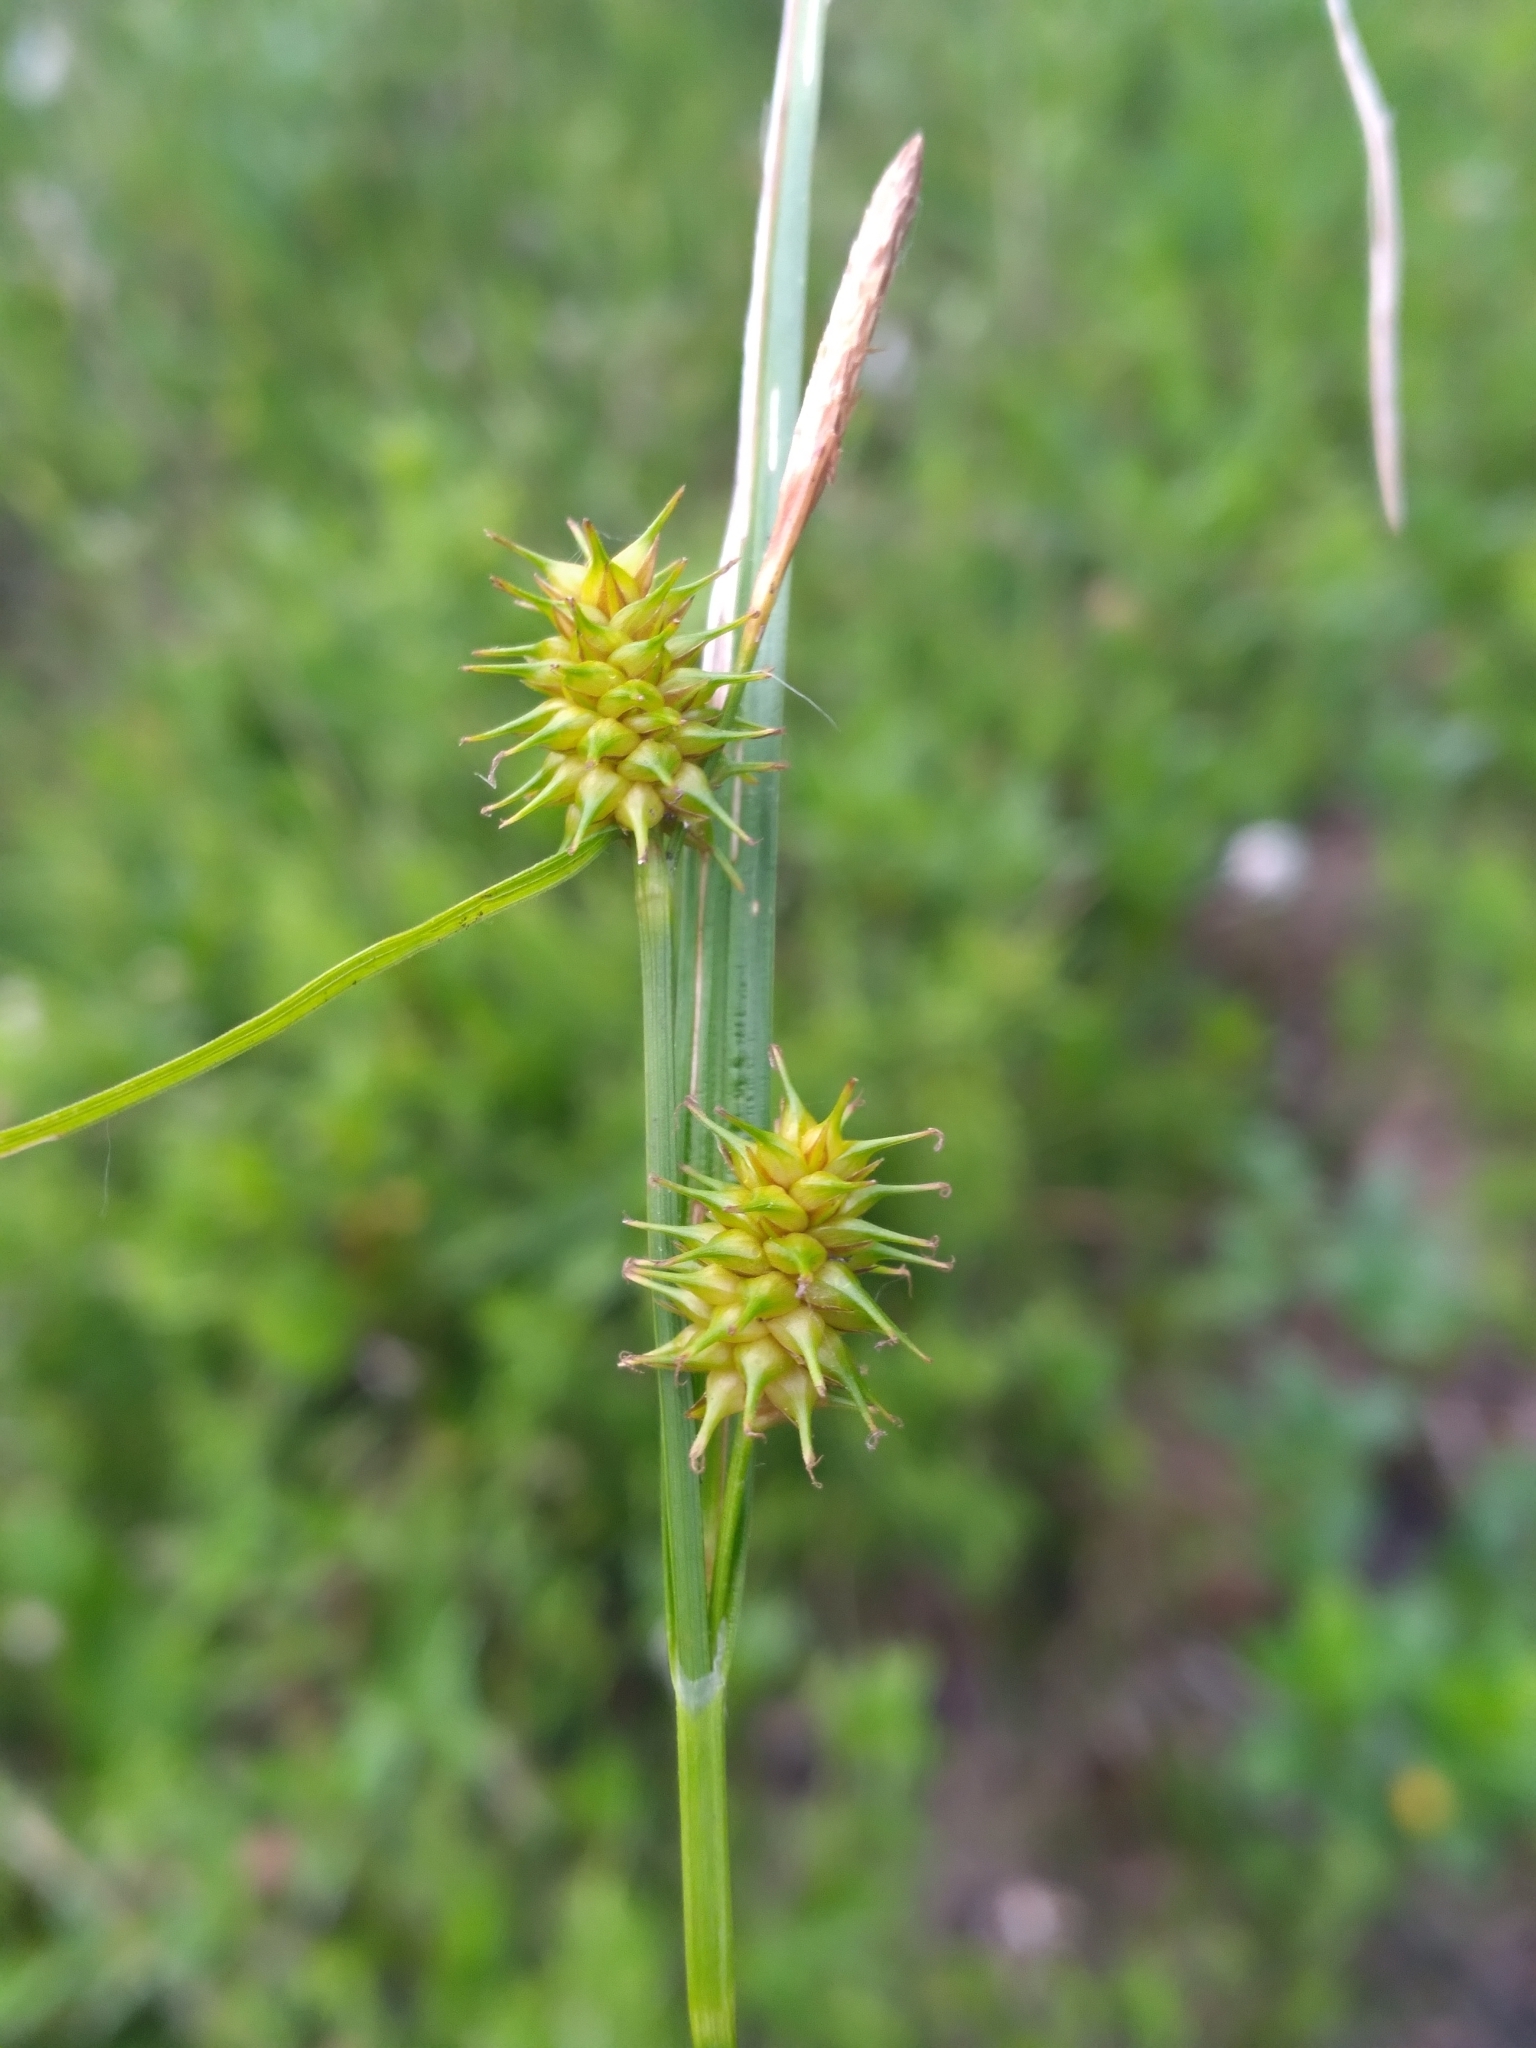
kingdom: Plantae
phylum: Tracheophyta
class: Liliopsida
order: Poales
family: Cyperaceae
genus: Carex
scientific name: Carex flava
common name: Large yellow-sedge
